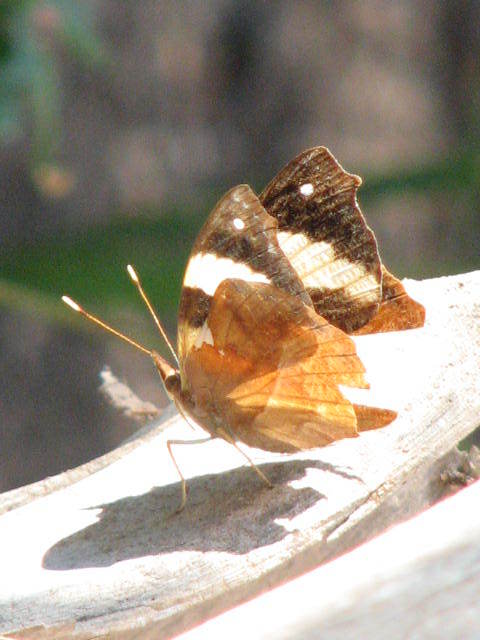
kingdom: Animalia
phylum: Arthropoda
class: Insecta
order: Lepidoptera
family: Nymphalidae
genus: Epiphile
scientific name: Epiphile adrasta
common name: Common banner
